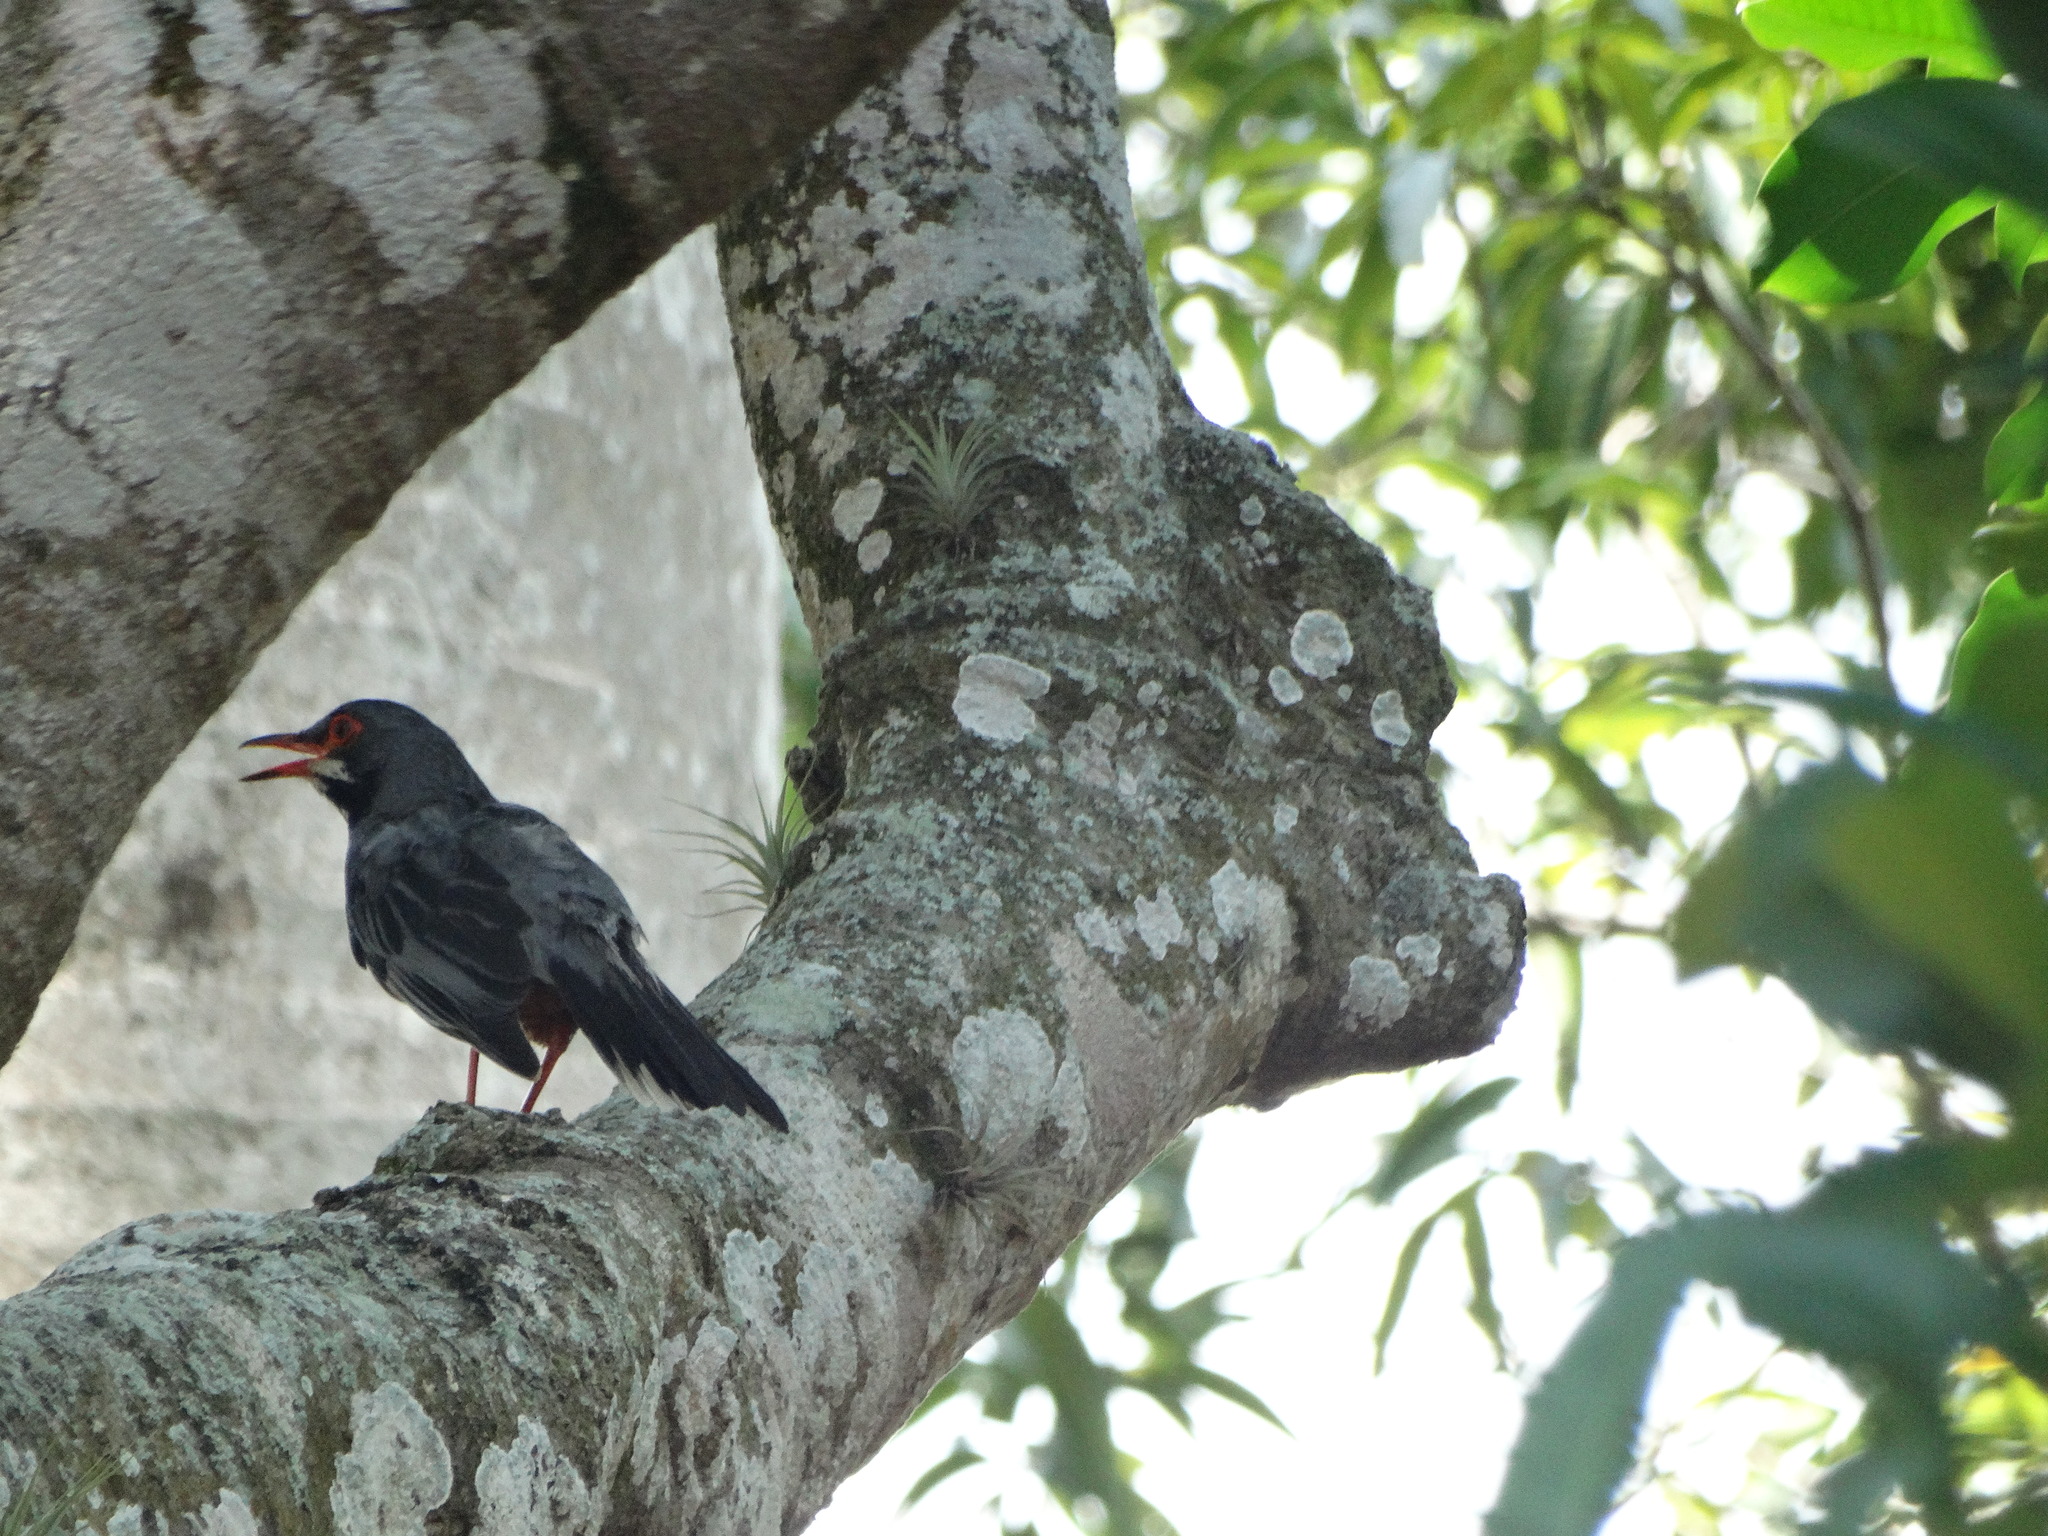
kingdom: Animalia
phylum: Chordata
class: Aves
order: Passeriformes
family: Turdidae
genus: Turdus
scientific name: Turdus plumbeus
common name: Red-legged thrush
